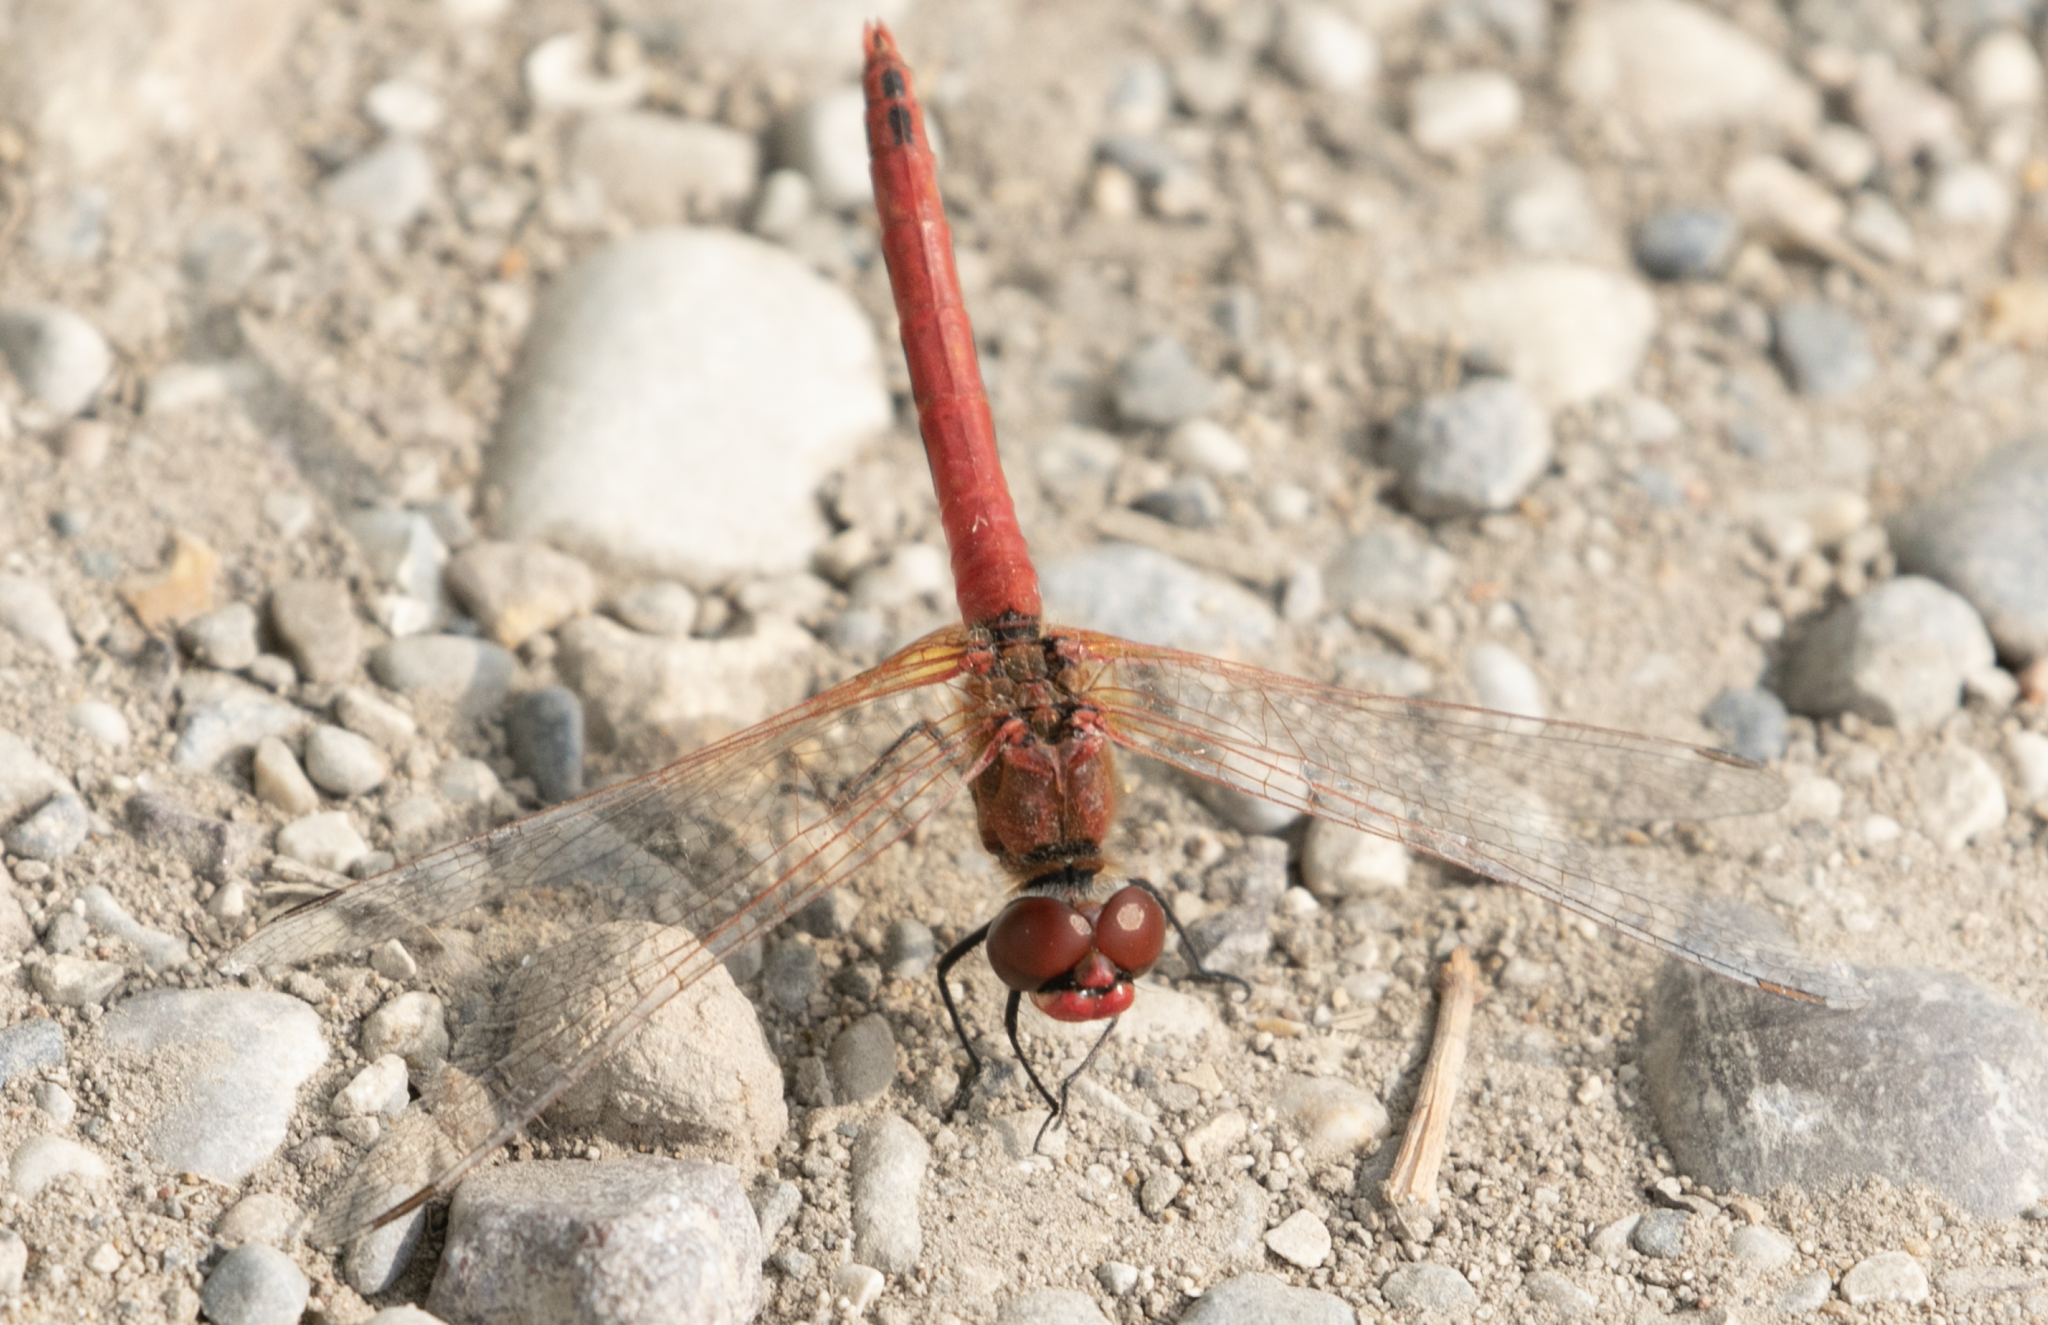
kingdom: Animalia
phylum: Arthropoda
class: Insecta
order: Odonata
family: Libellulidae
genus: Sympetrum
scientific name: Sympetrum fonscolombii
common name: Red-veined darter
